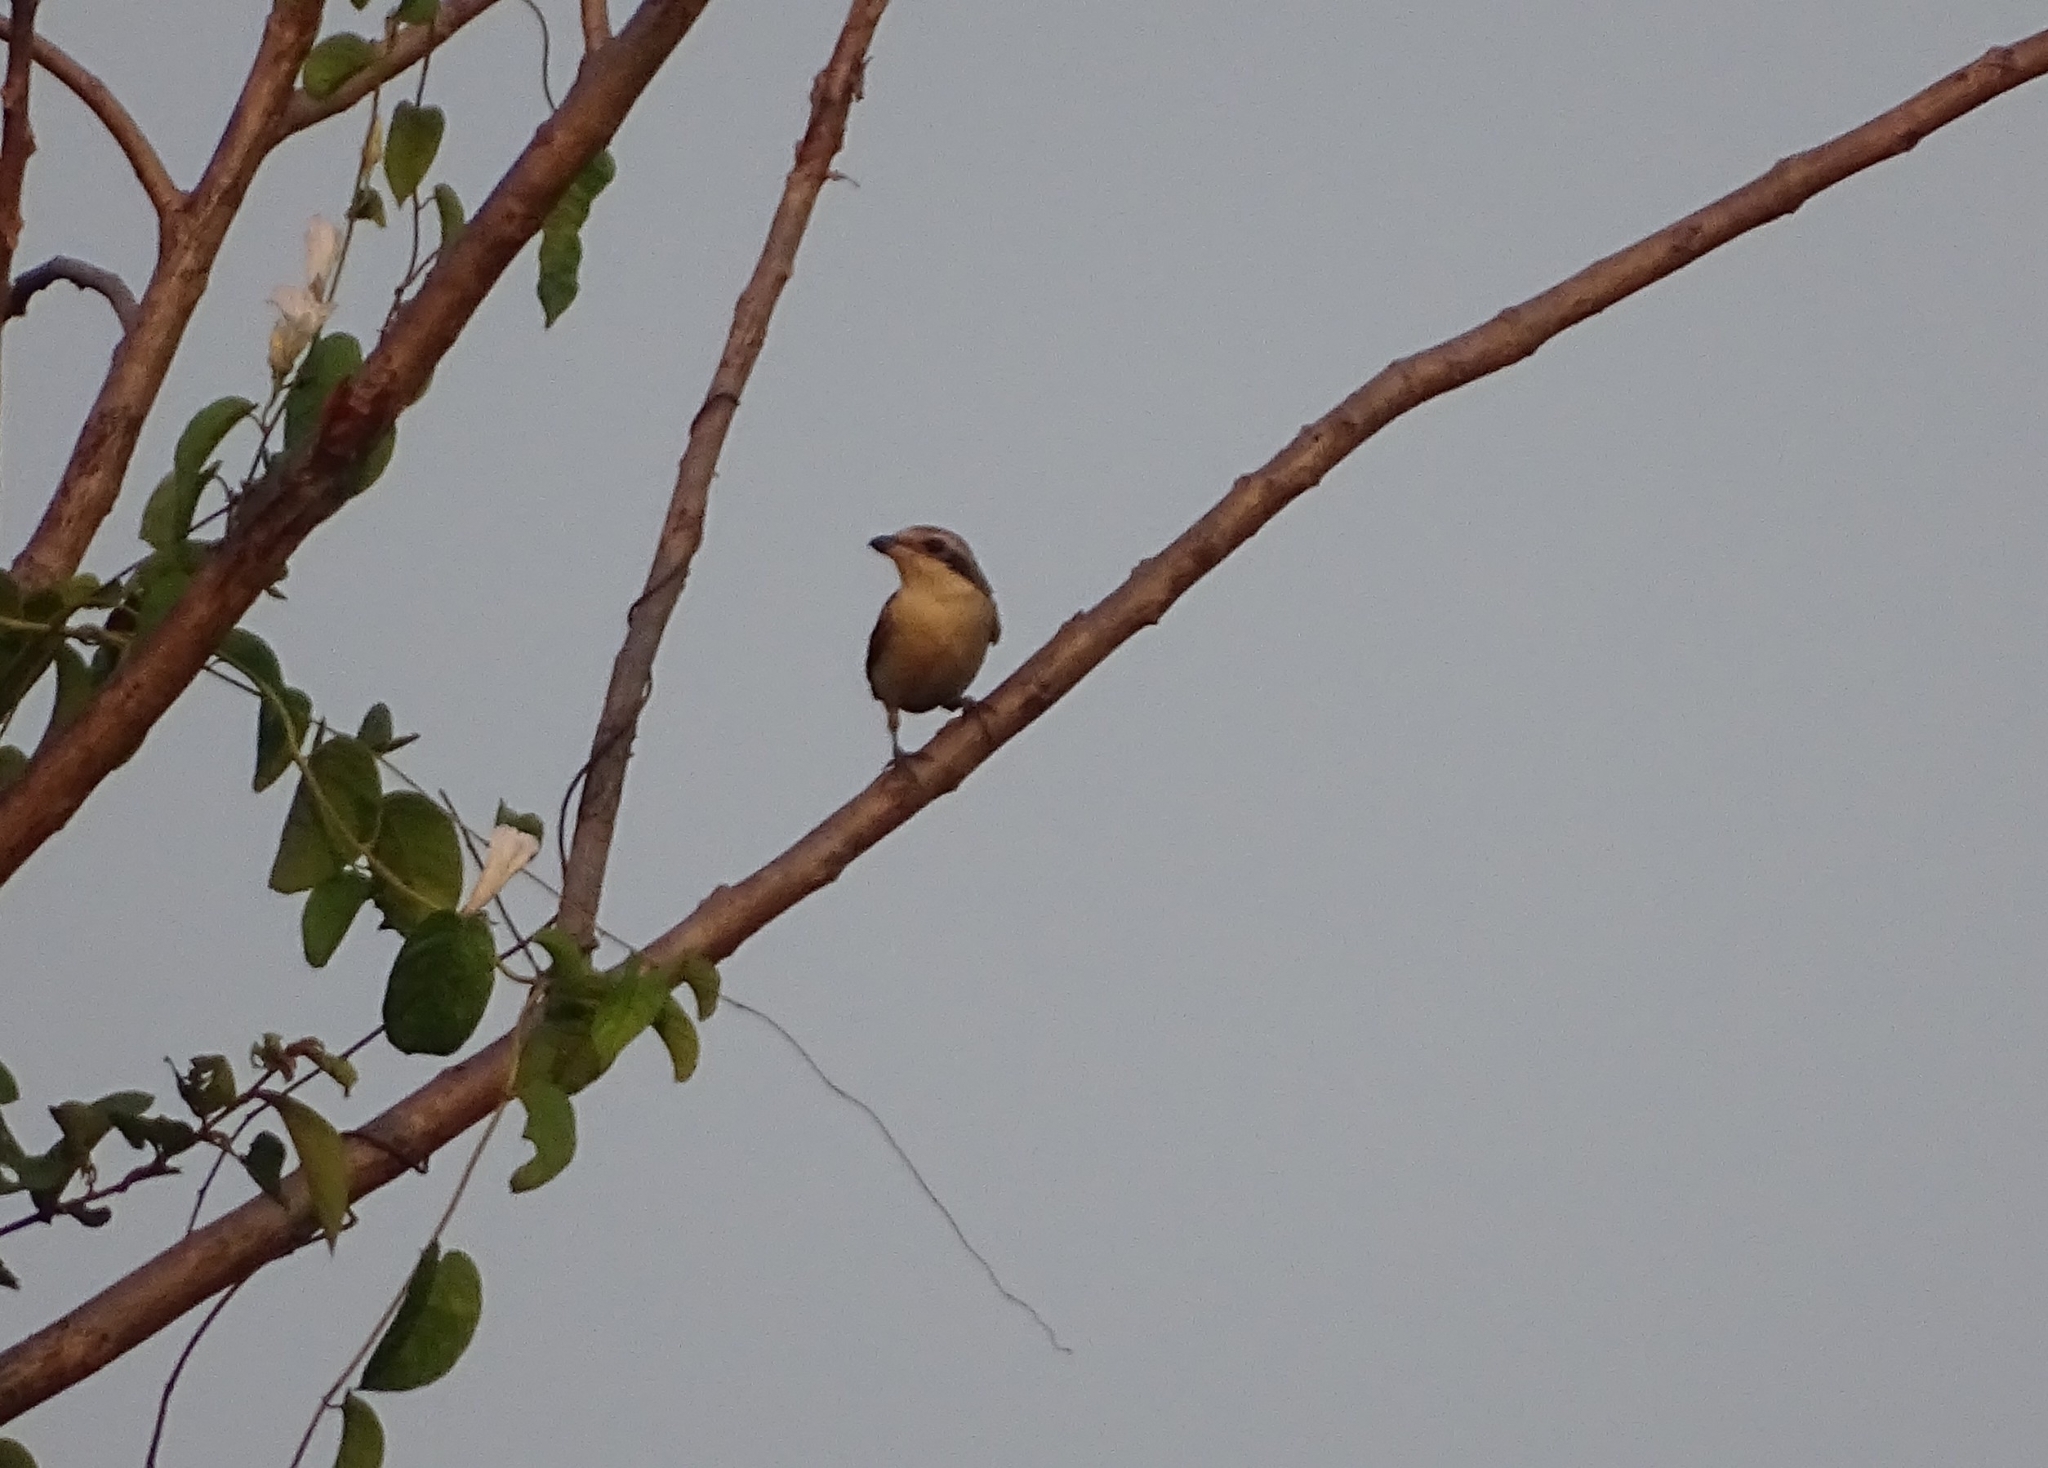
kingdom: Animalia
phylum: Chordata
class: Aves
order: Passeriformes
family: Laniidae
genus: Lanius
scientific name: Lanius cristatus
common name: Brown shrike
